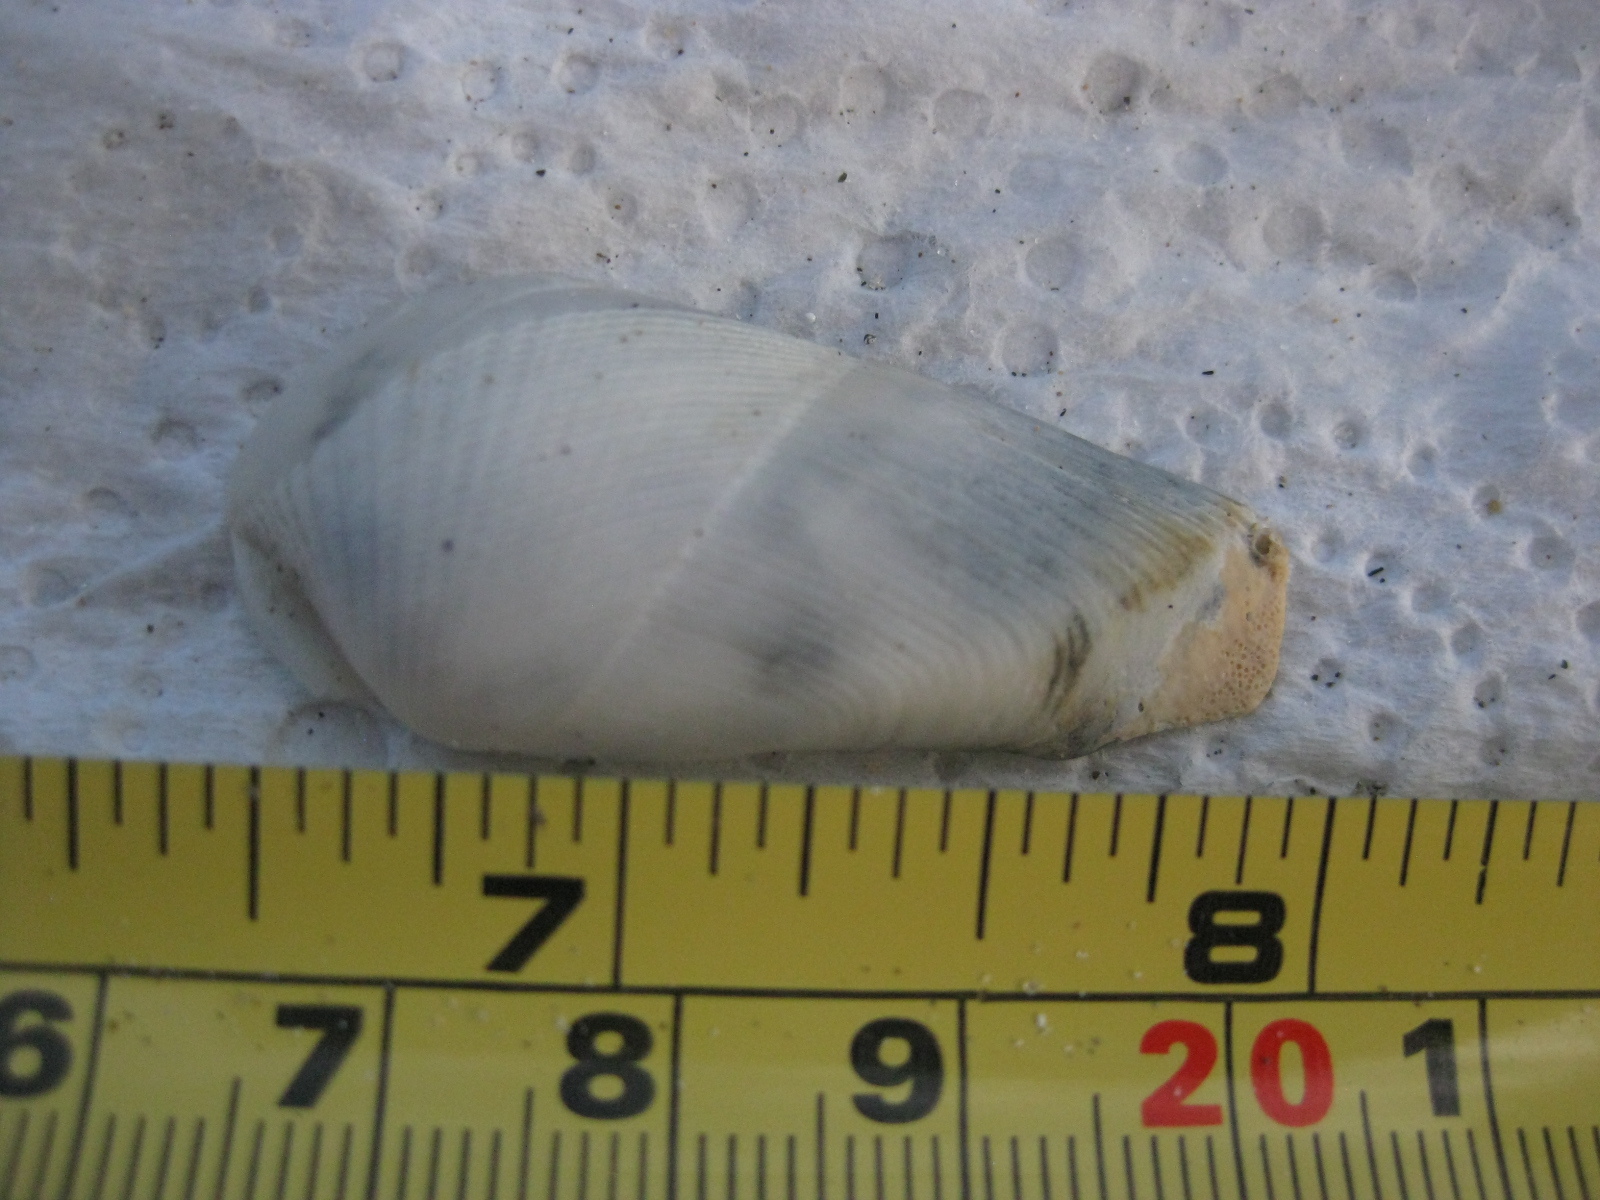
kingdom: Animalia
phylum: Mollusca
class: Bivalvia
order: Myida
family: Pholadidae
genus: Pholadidea
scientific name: Pholadidea suteri
